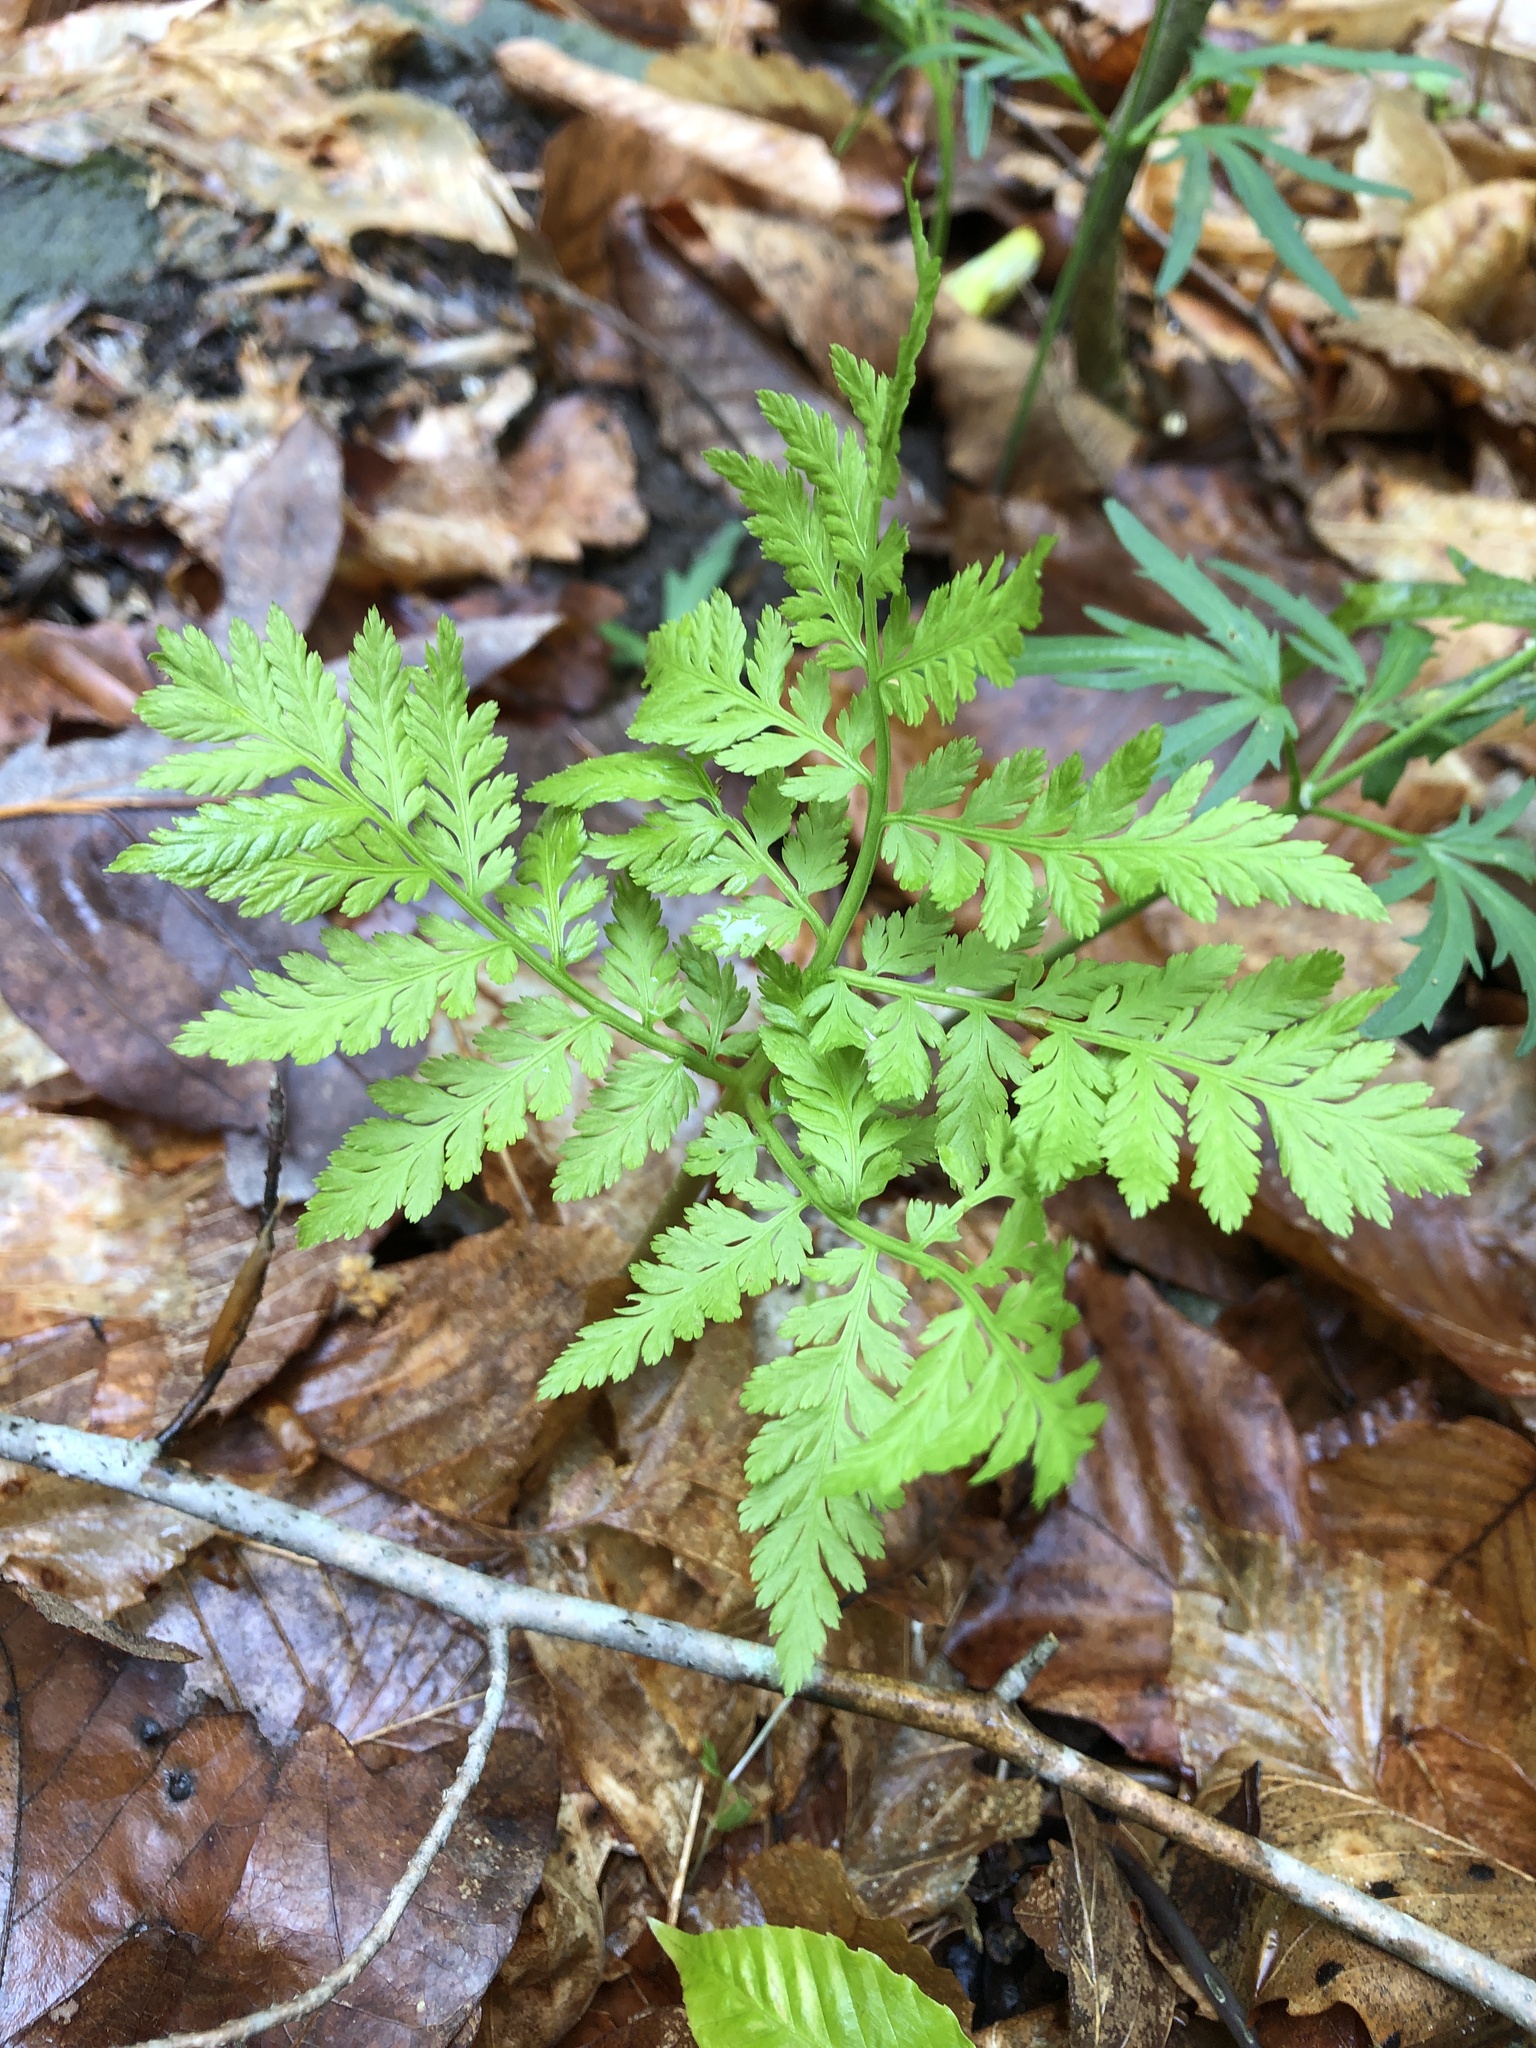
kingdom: Plantae
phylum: Tracheophyta
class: Polypodiopsida
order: Ophioglossales
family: Ophioglossaceae
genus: Botrypus
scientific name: Botrypus virginianus
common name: Common grapefern
